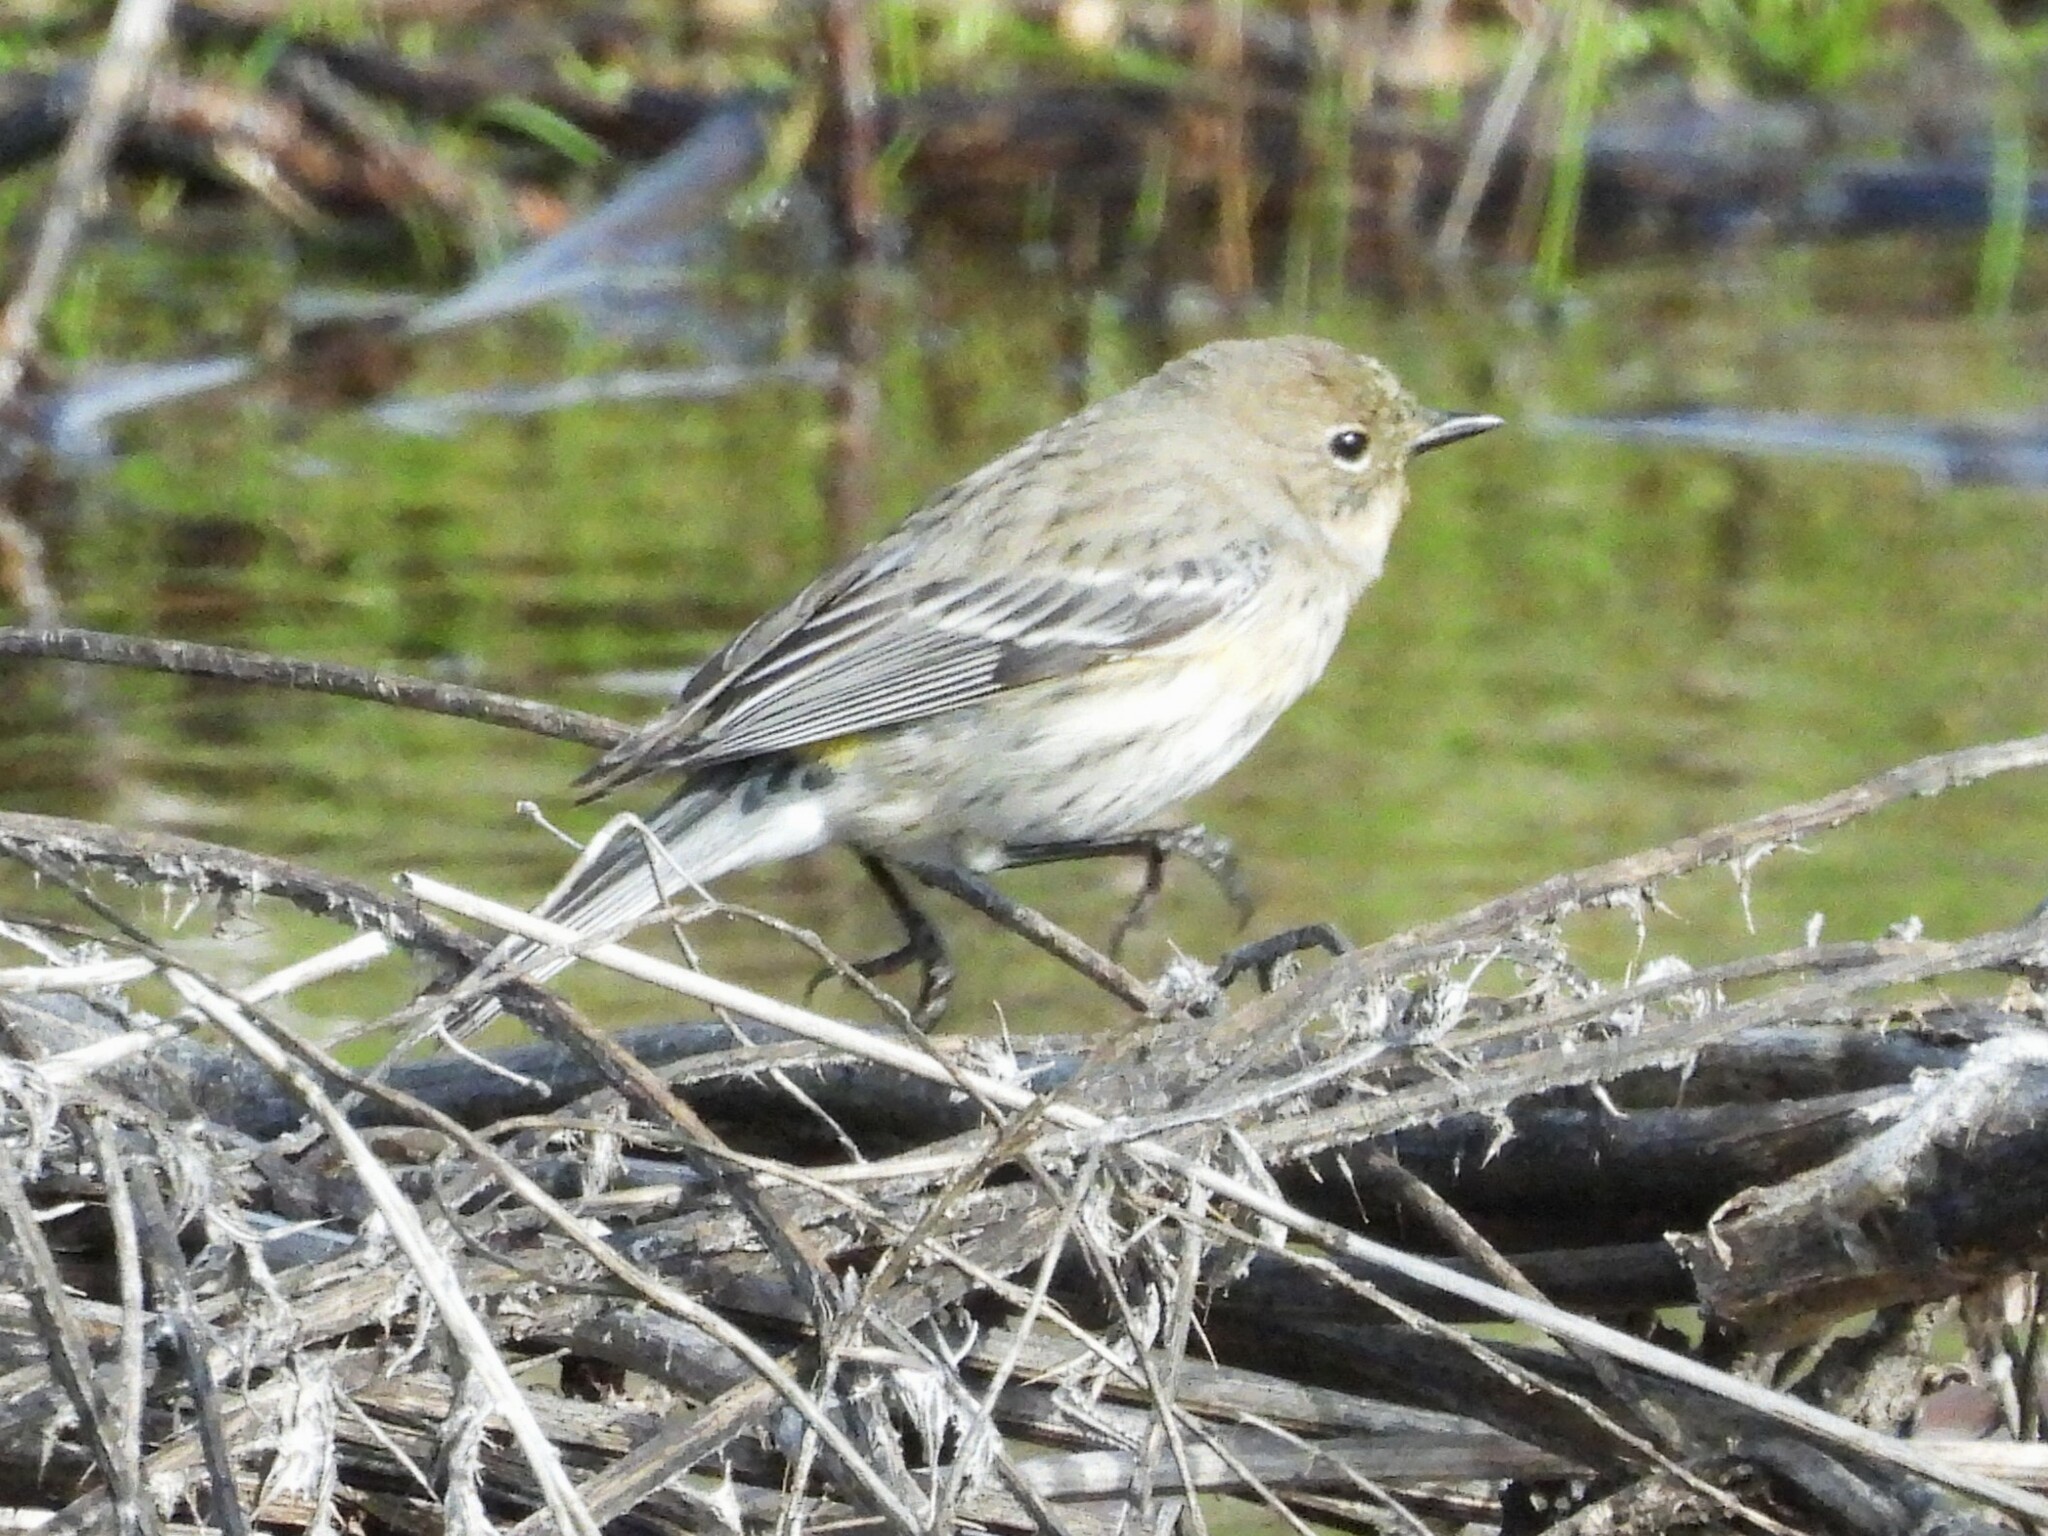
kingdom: Animalia
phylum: Chordata
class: Aves
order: Passeriformes
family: Parulidae
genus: Setophaga
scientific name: Setophaga coronata
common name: Myrtle warbler
